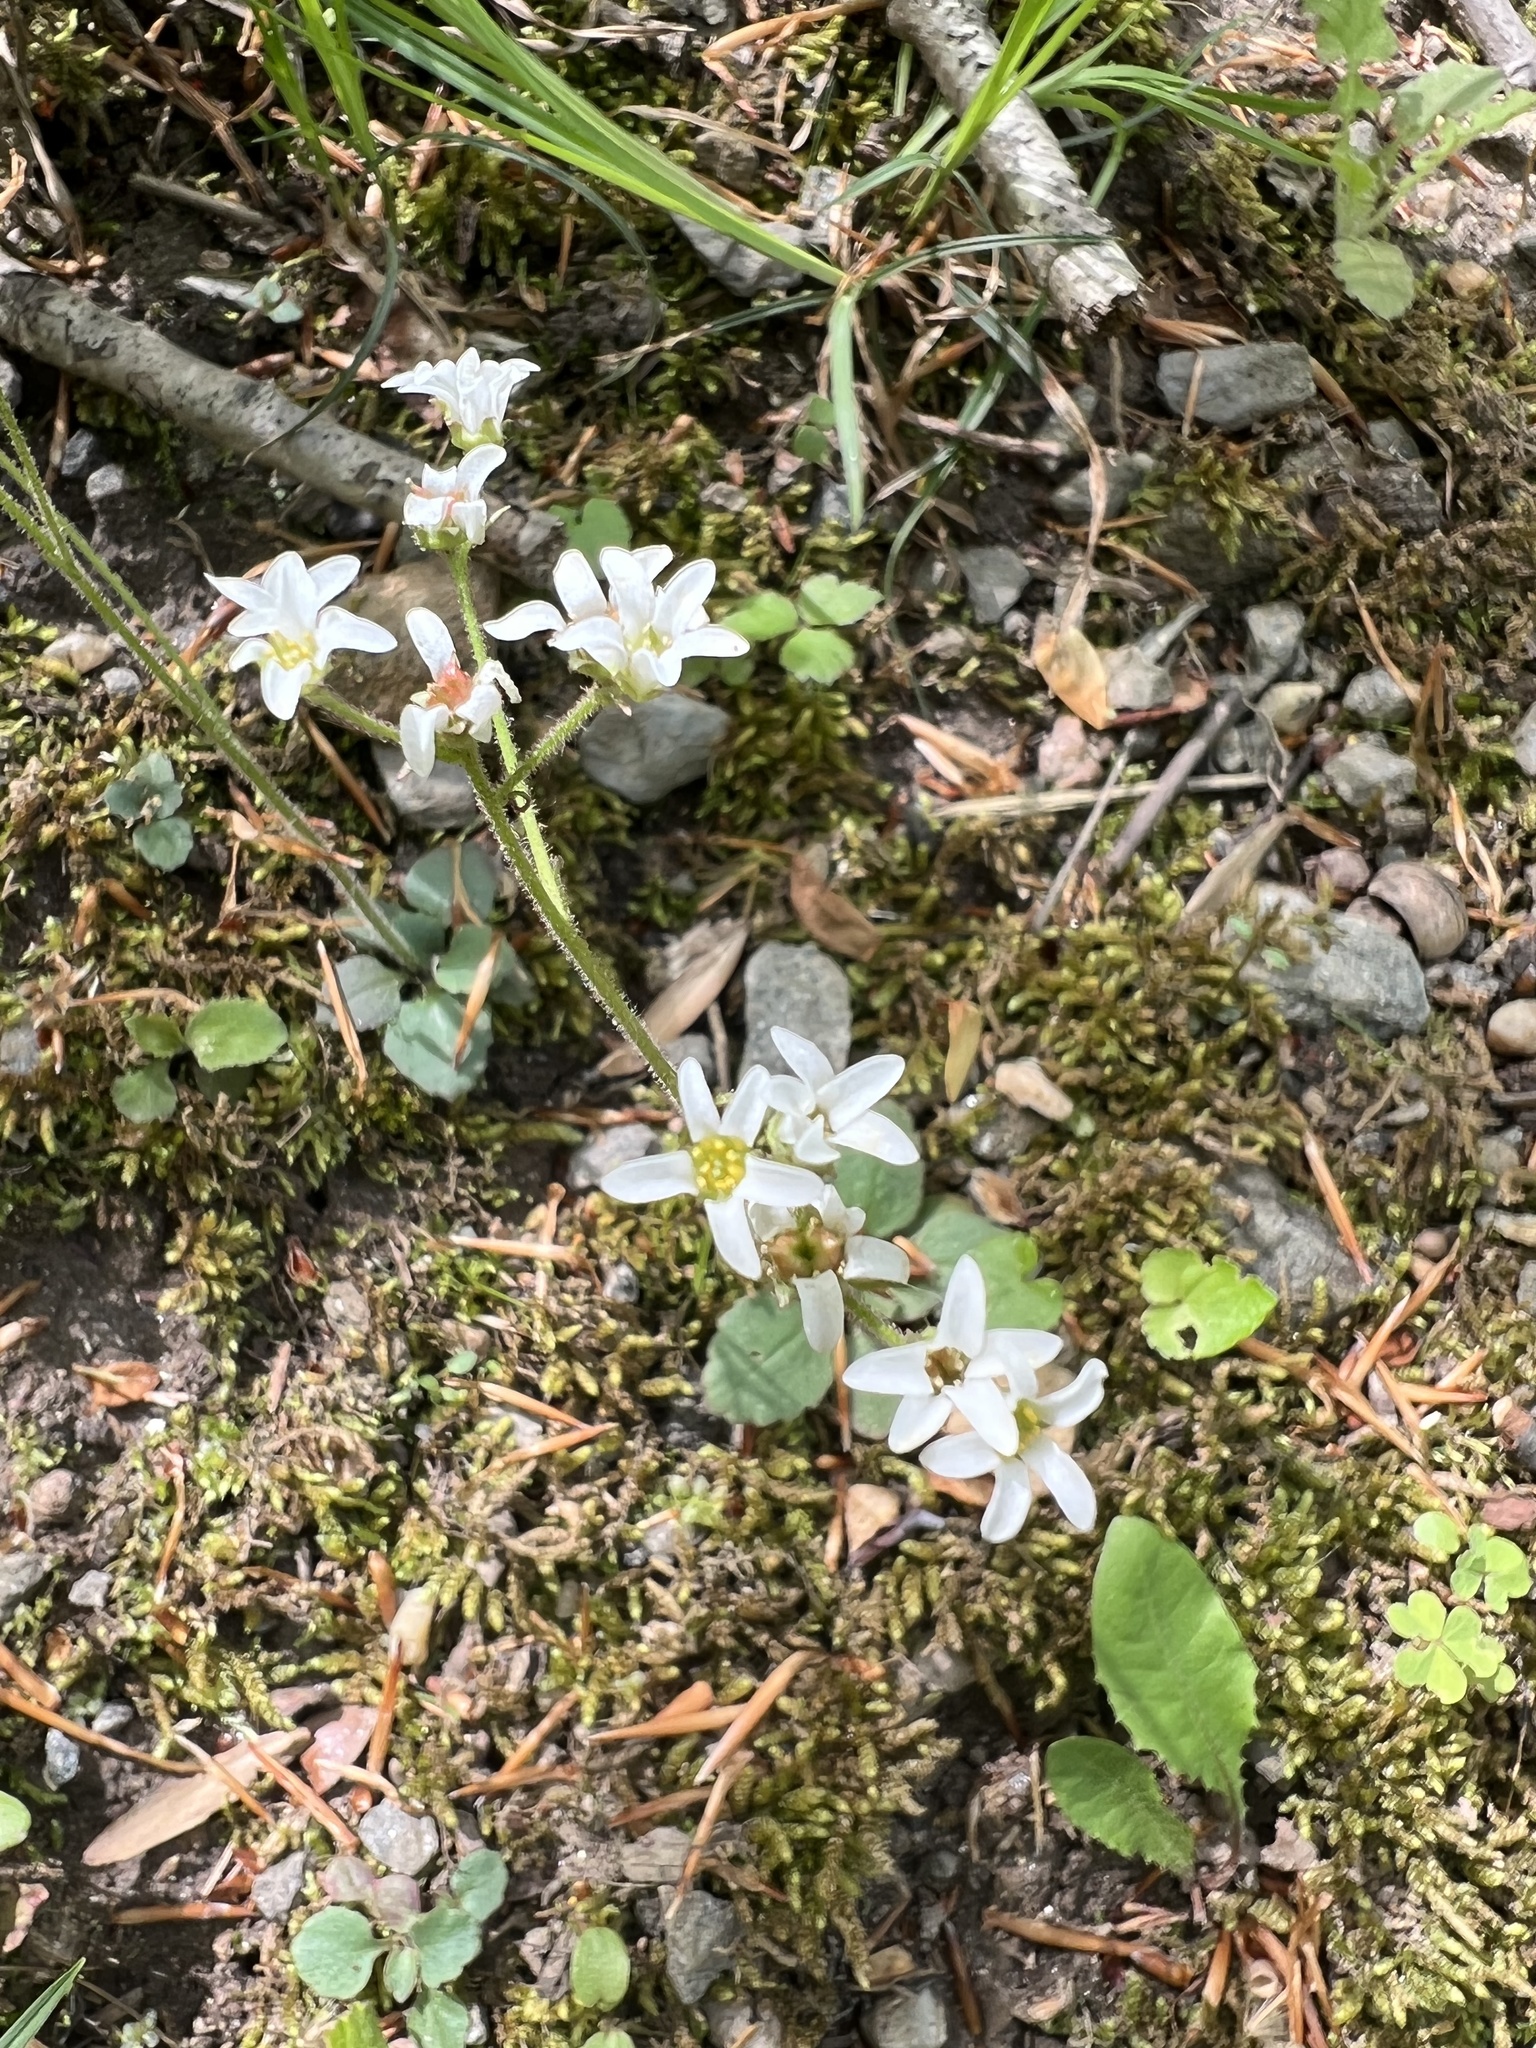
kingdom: Plantae
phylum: Tracheophyta
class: Magnoliopsida
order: Saxifragales
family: Saxifragaceae
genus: Micranthes
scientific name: Micranthes virginiensis
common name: Early saxifrage
